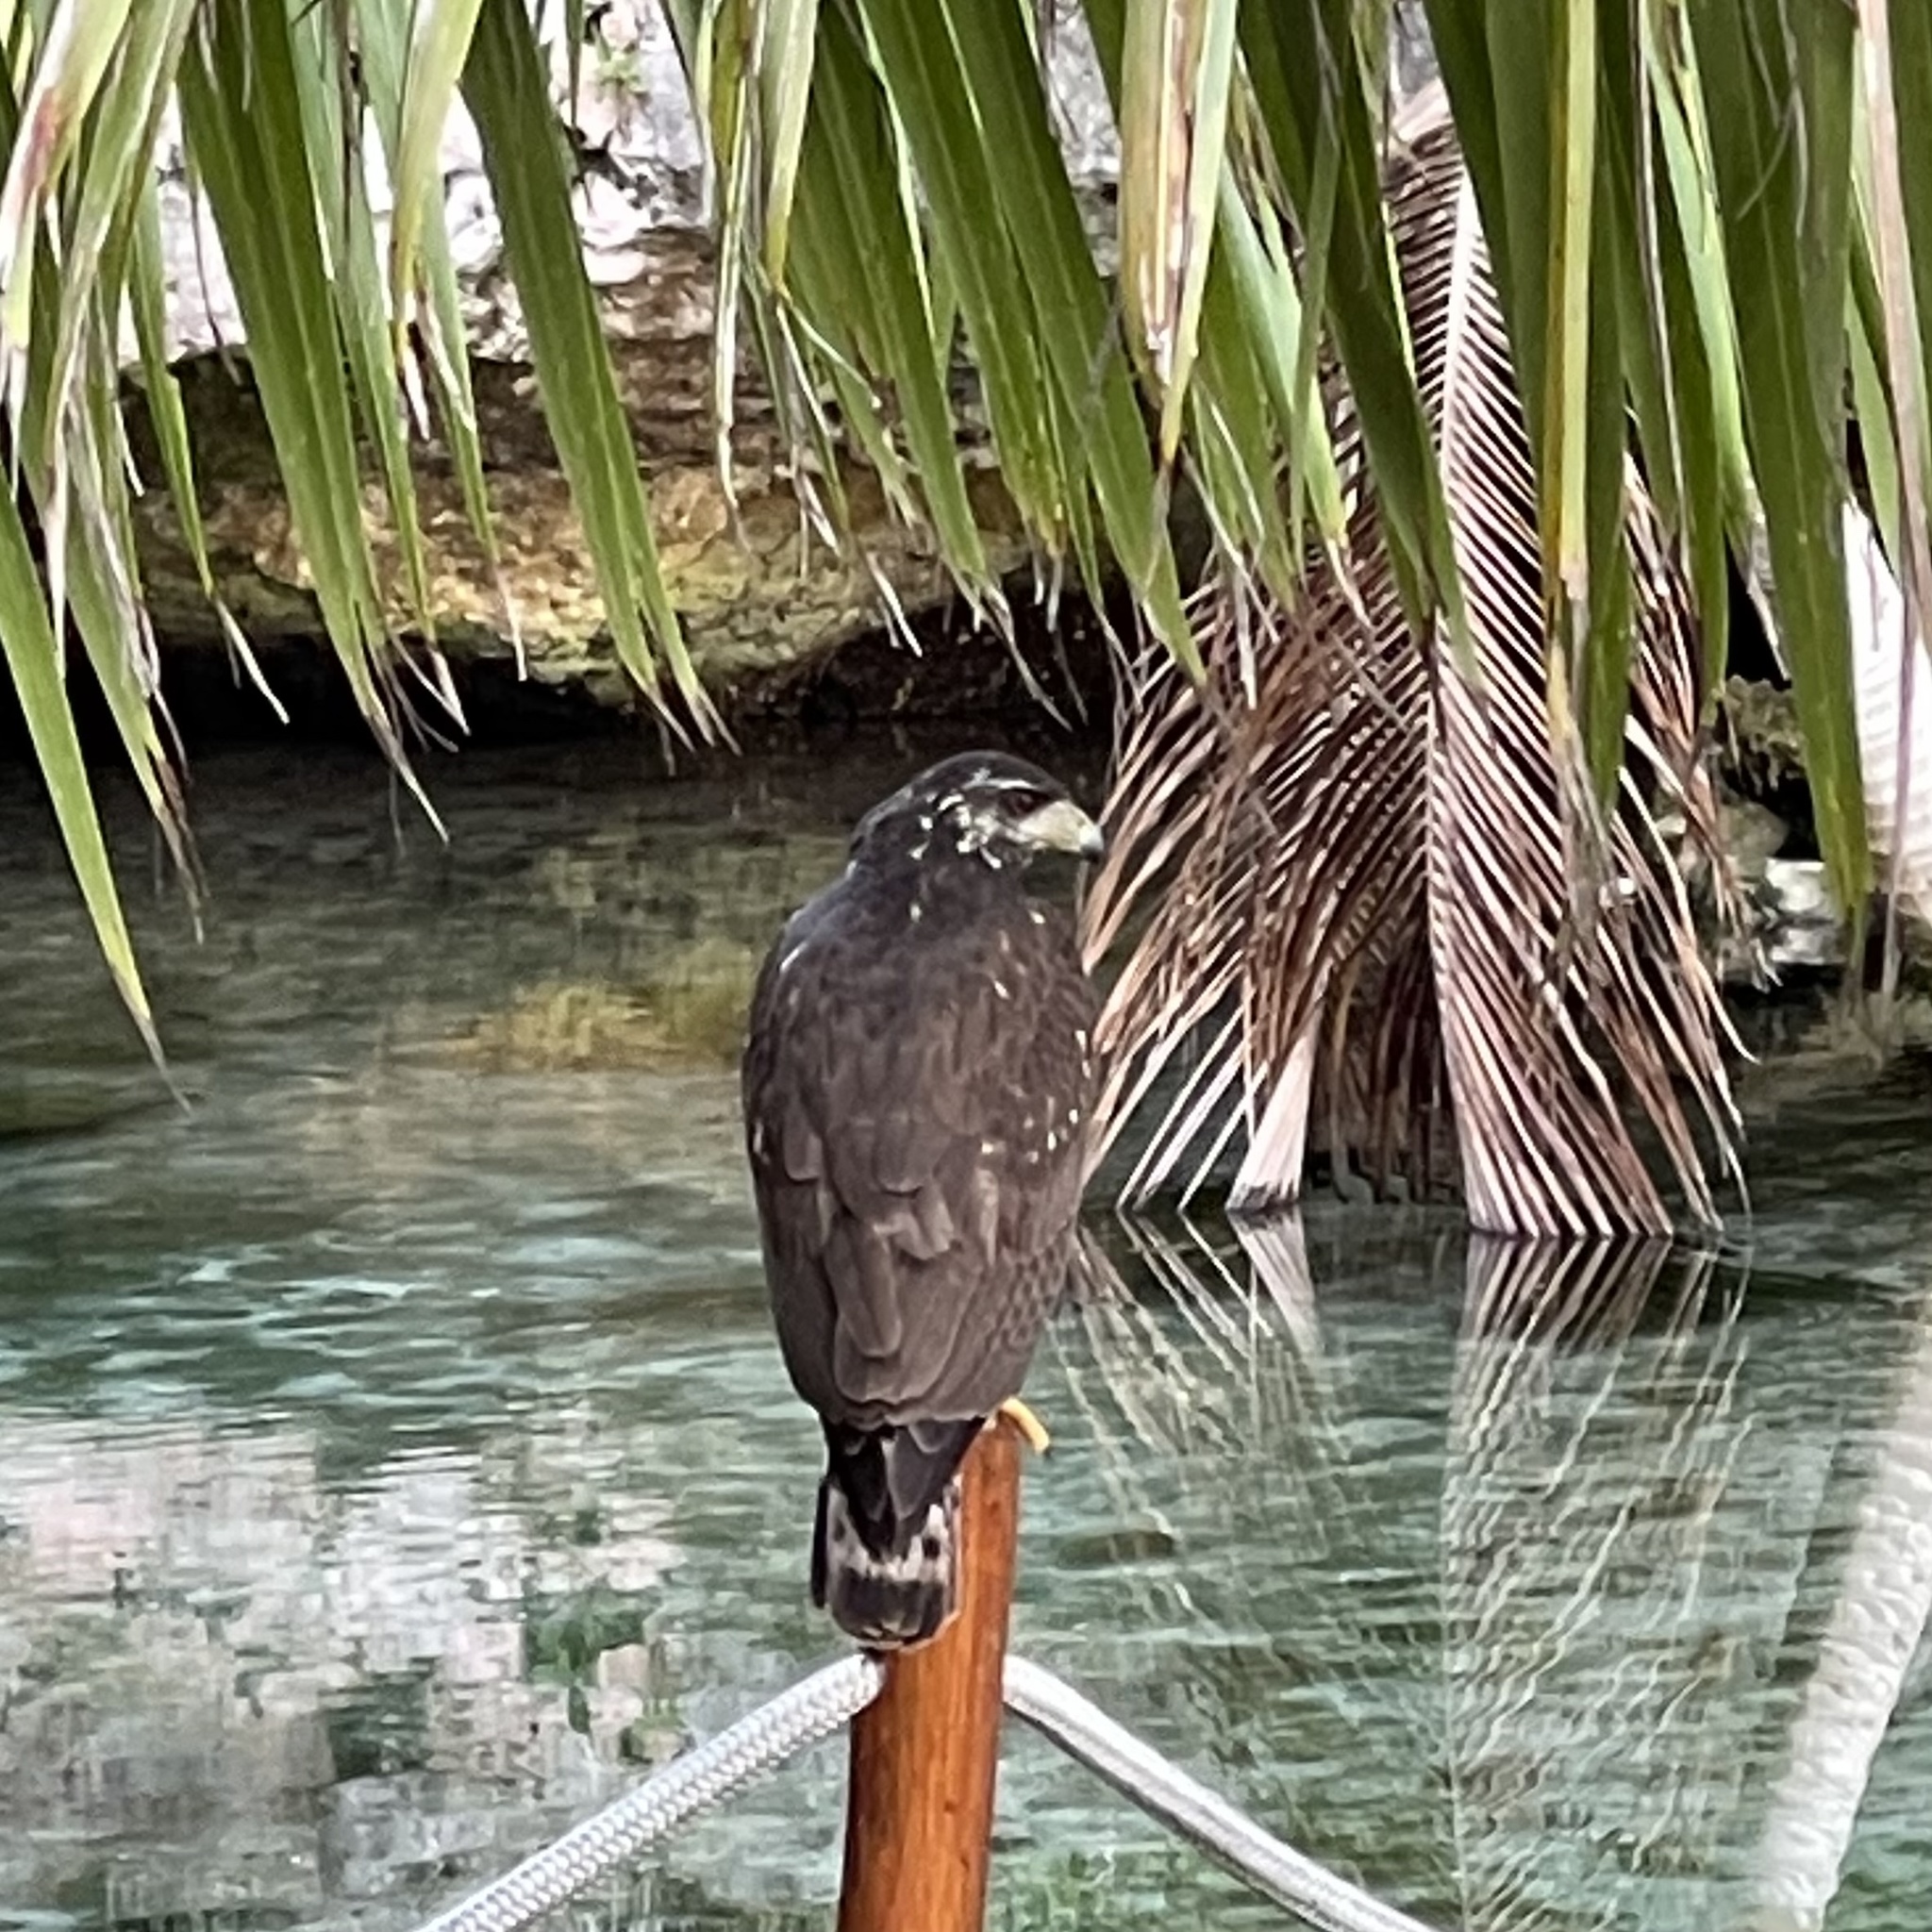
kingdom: Animalia
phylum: Chordata
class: Aves
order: Accipitriformes
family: Accipitridae
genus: Buteogallus
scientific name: Buteogallus anthracinus
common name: Common black hawk
